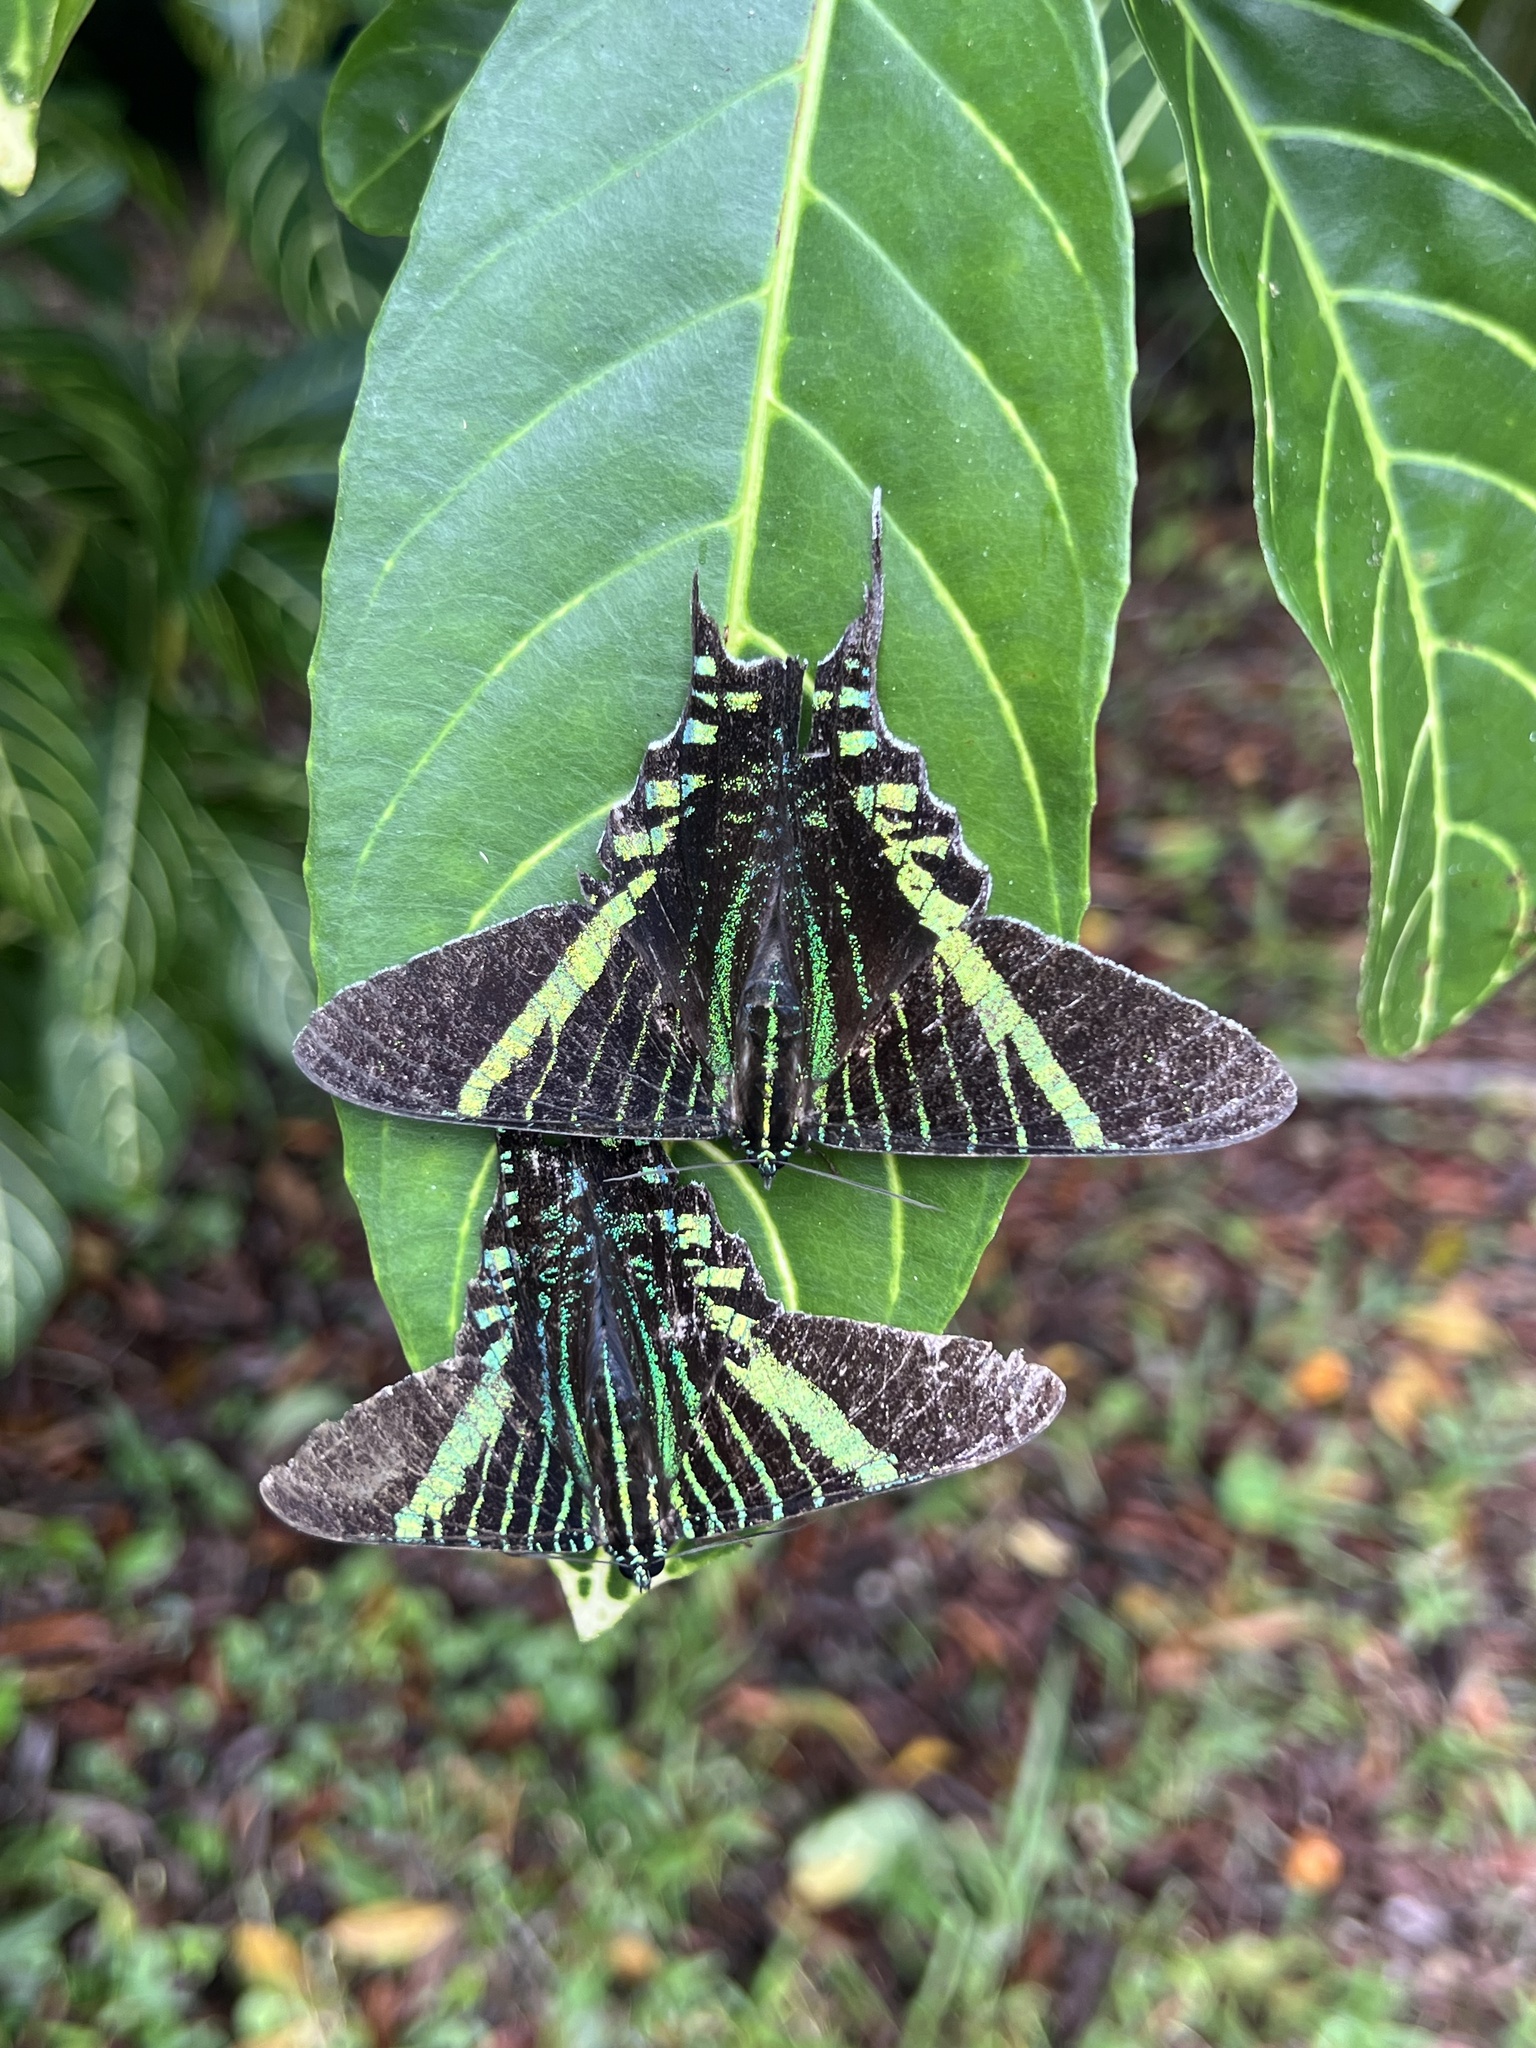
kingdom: Animalia
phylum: Arthropoda
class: Insecta
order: Lepidoptera
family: Uraniidae
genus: Urania
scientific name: Urania fulgens
